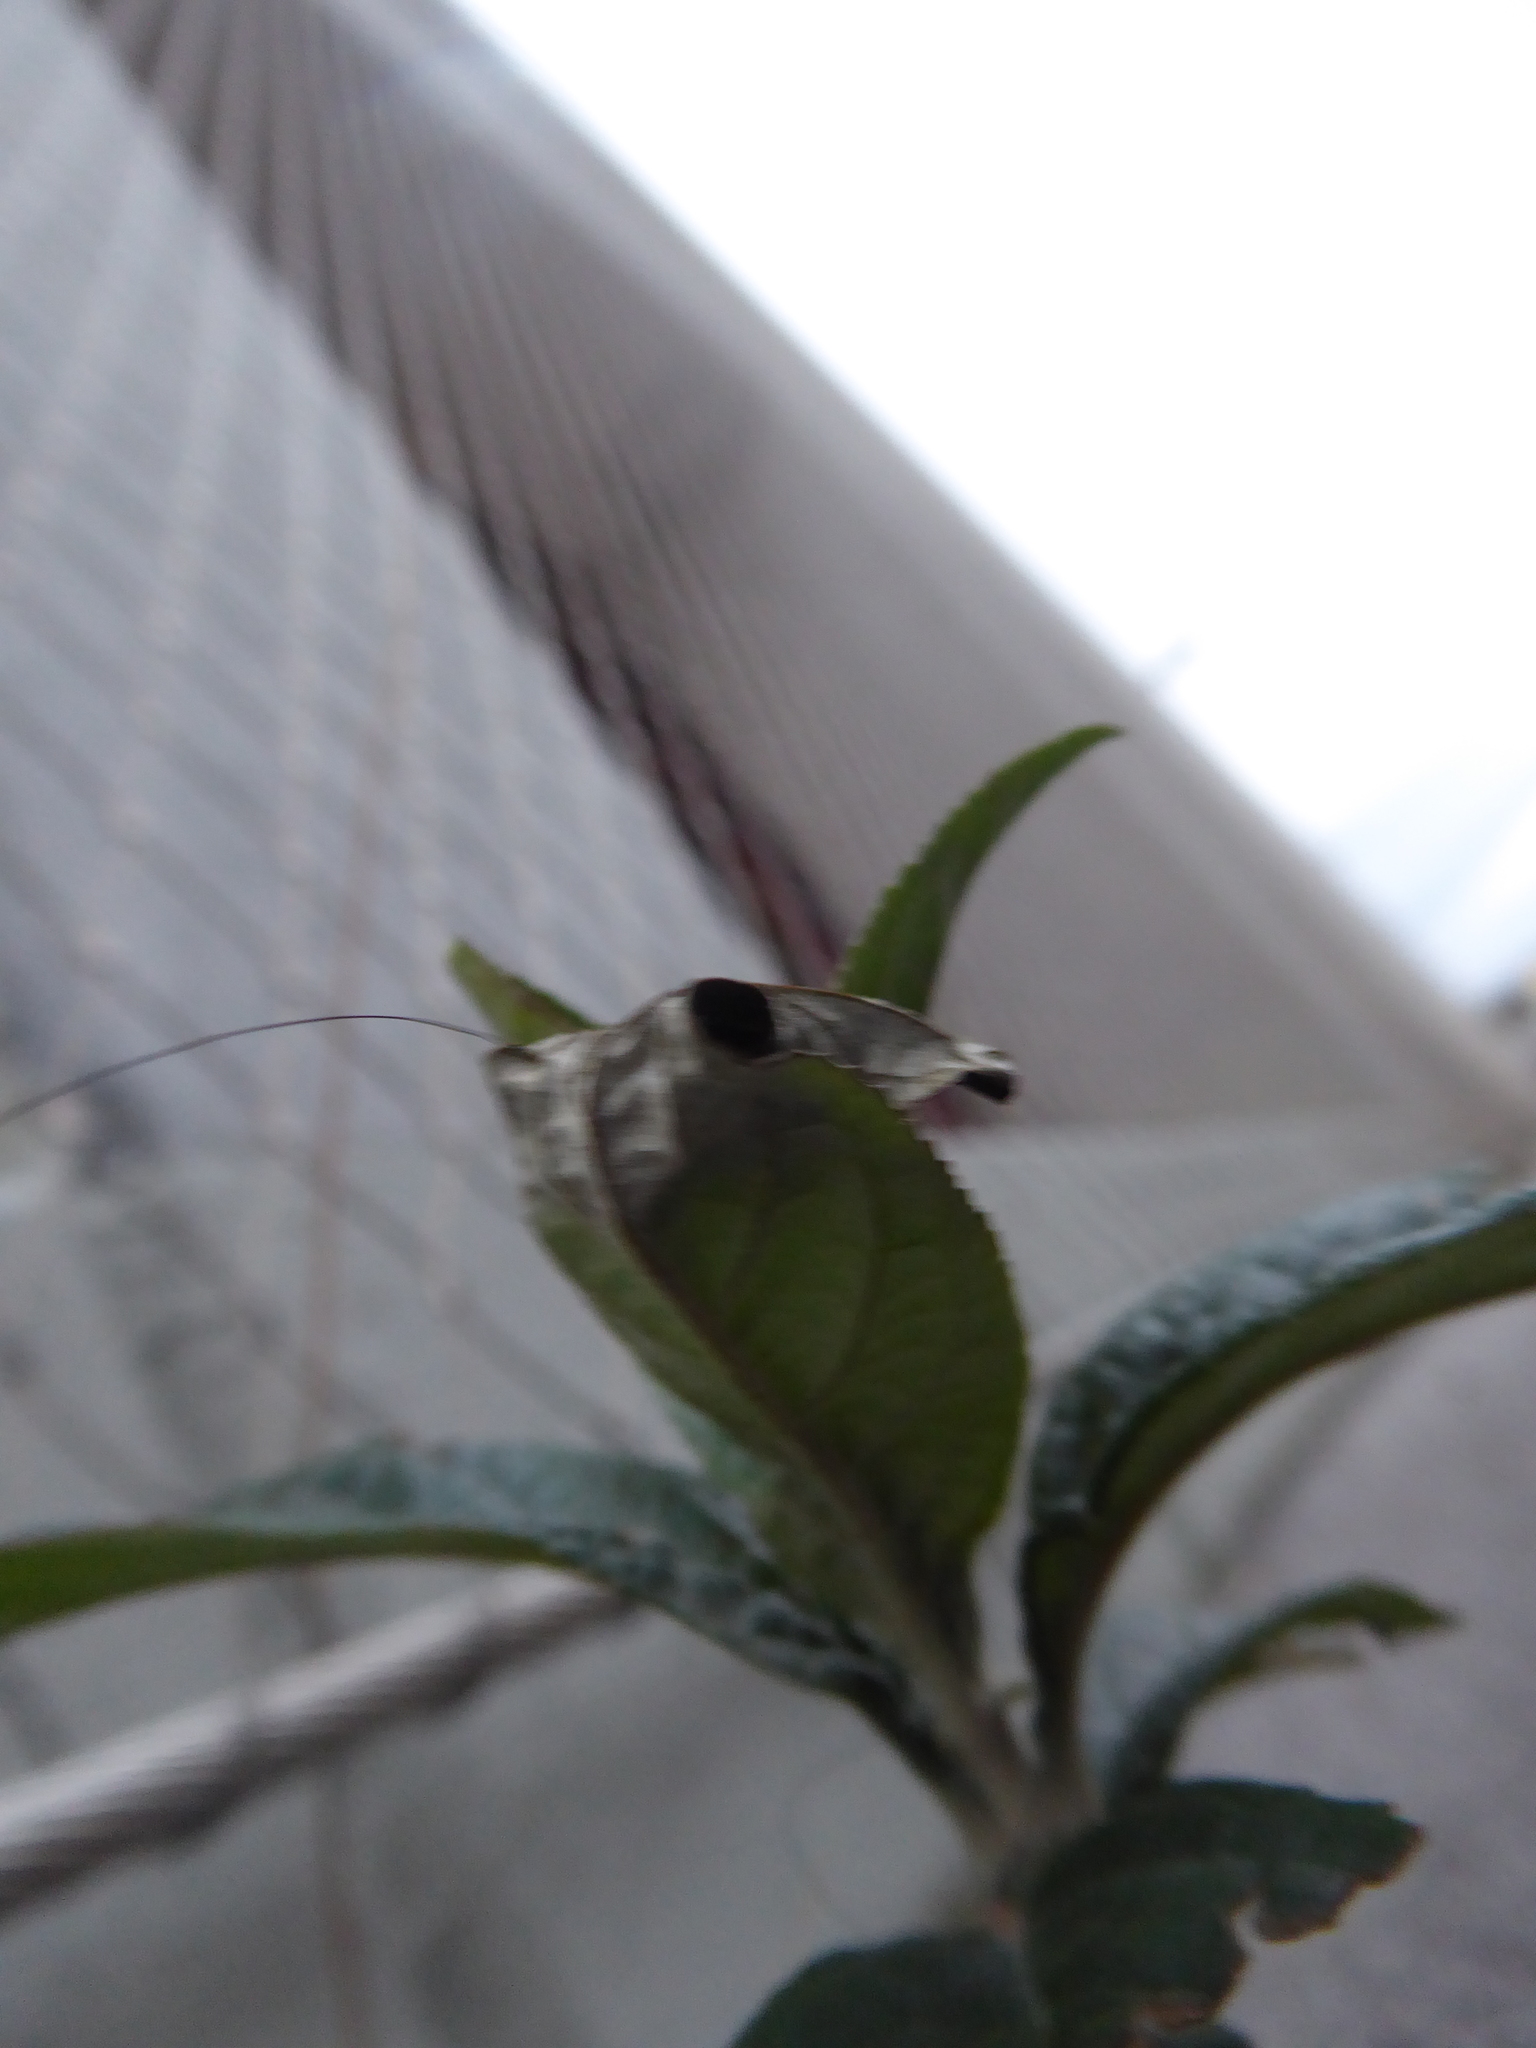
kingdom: Plantae
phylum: Tracheophyta
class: Magnoliopsida
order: Lamiales
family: Scrophulariaceae
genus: Buddleja
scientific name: Buddleja davidii
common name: Butterfly-bush
